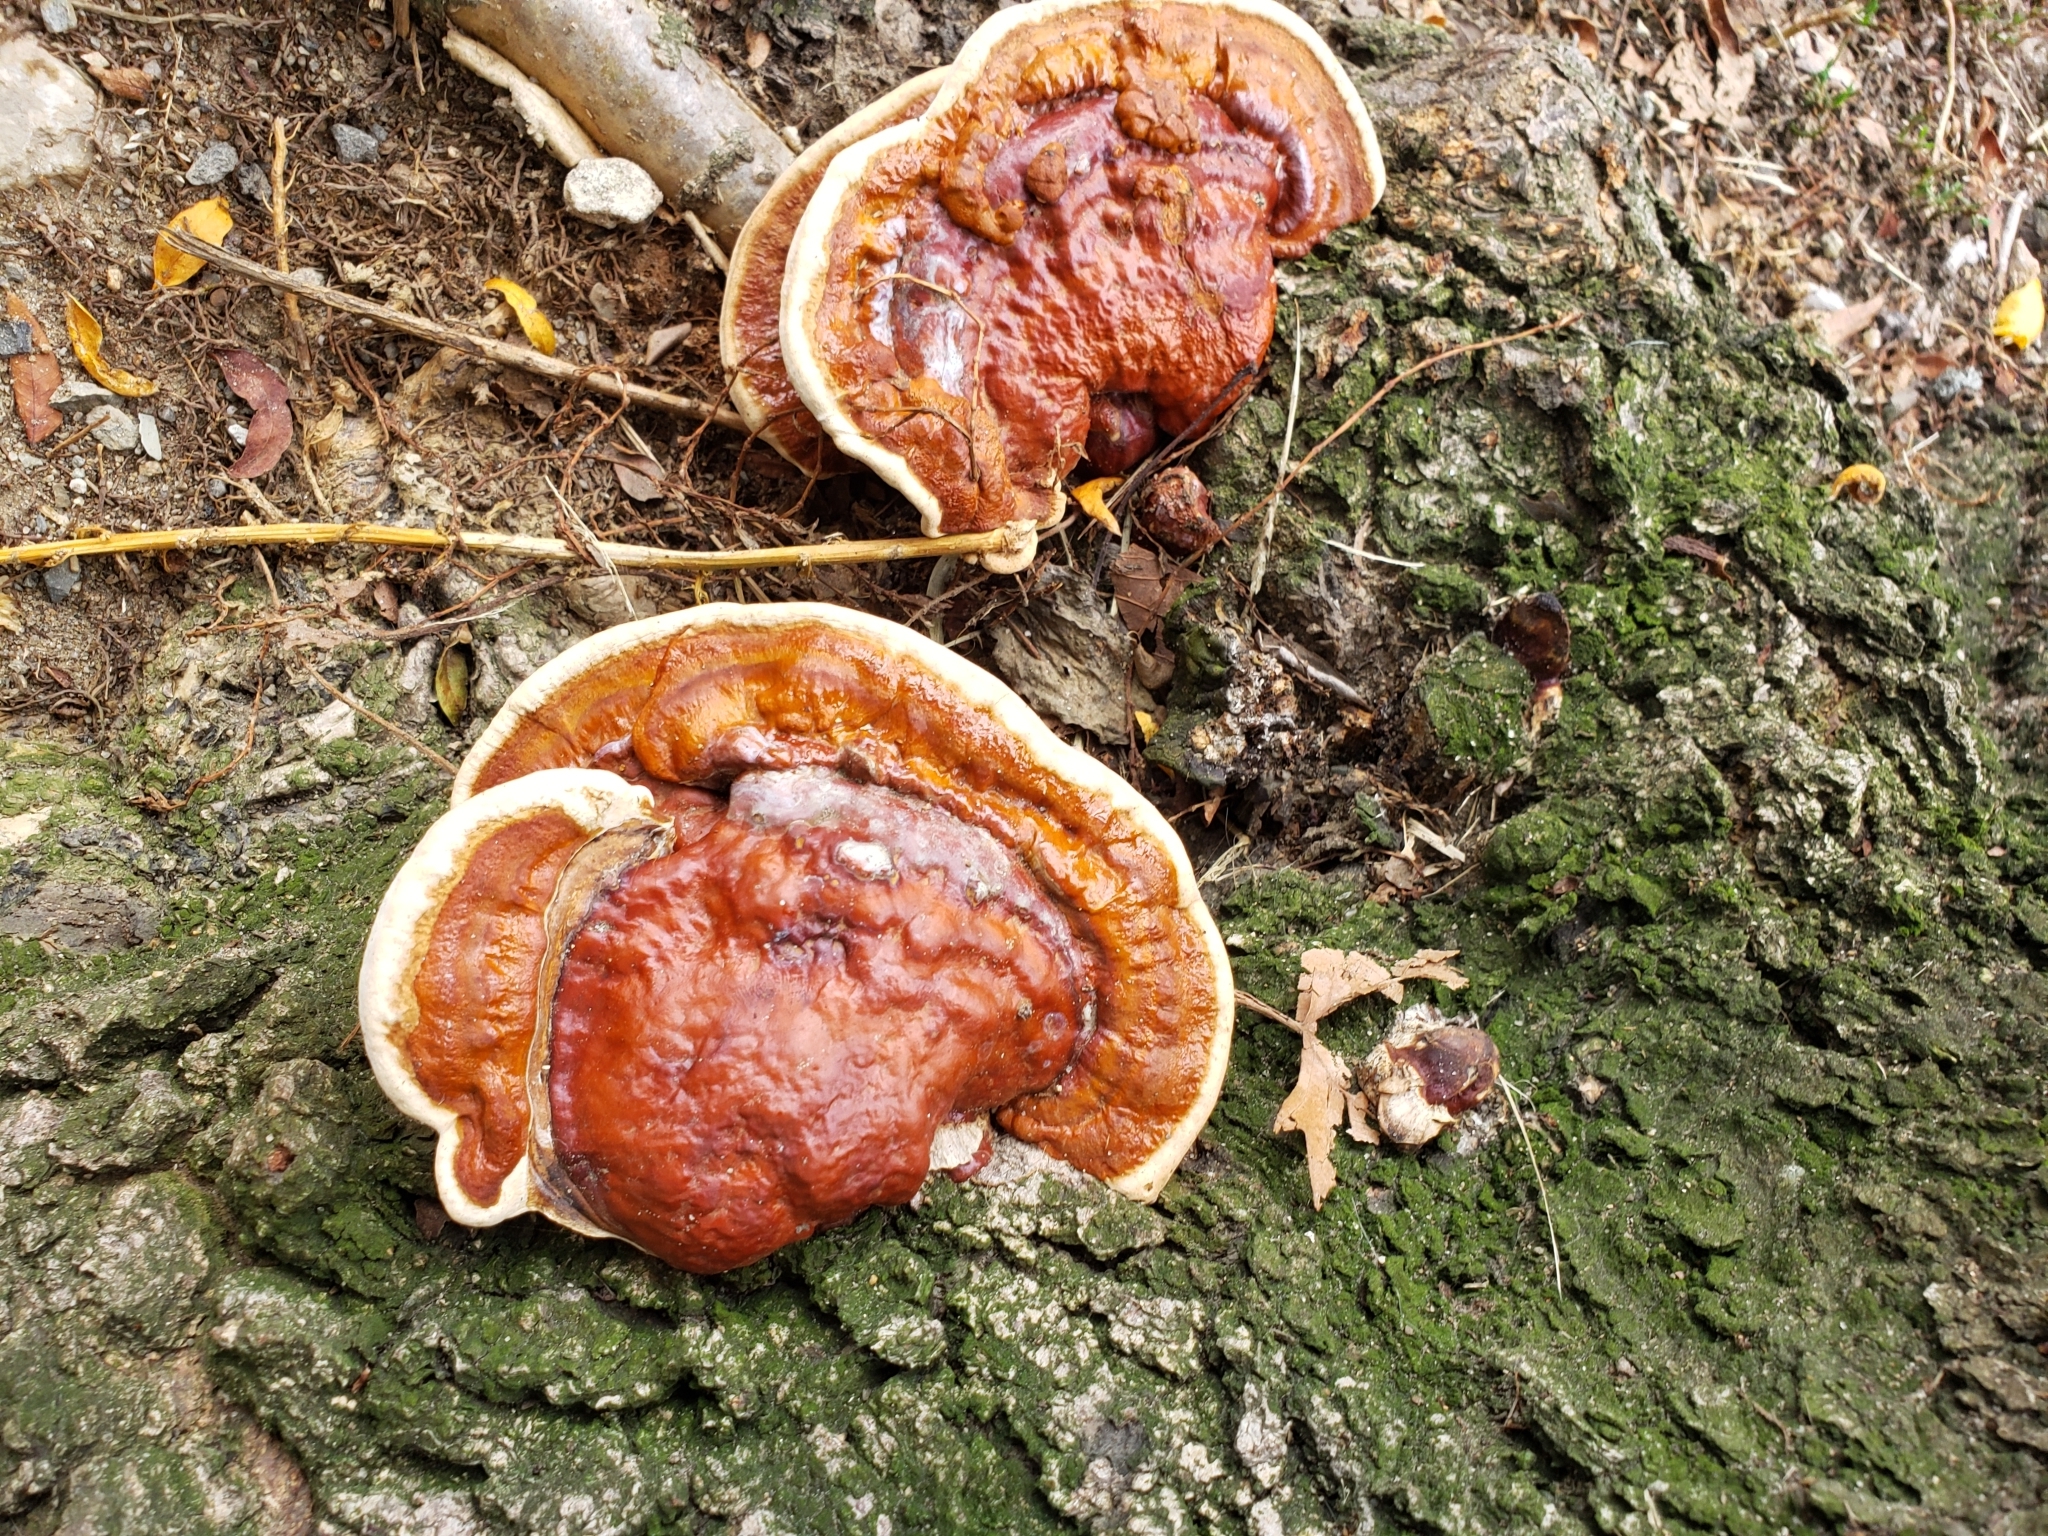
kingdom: Fungi
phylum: Basidiomycota
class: Agaricomycetes
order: Polyporales
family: Polyporaceae
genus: Ganoderma
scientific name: Ganoderma resinaceum
